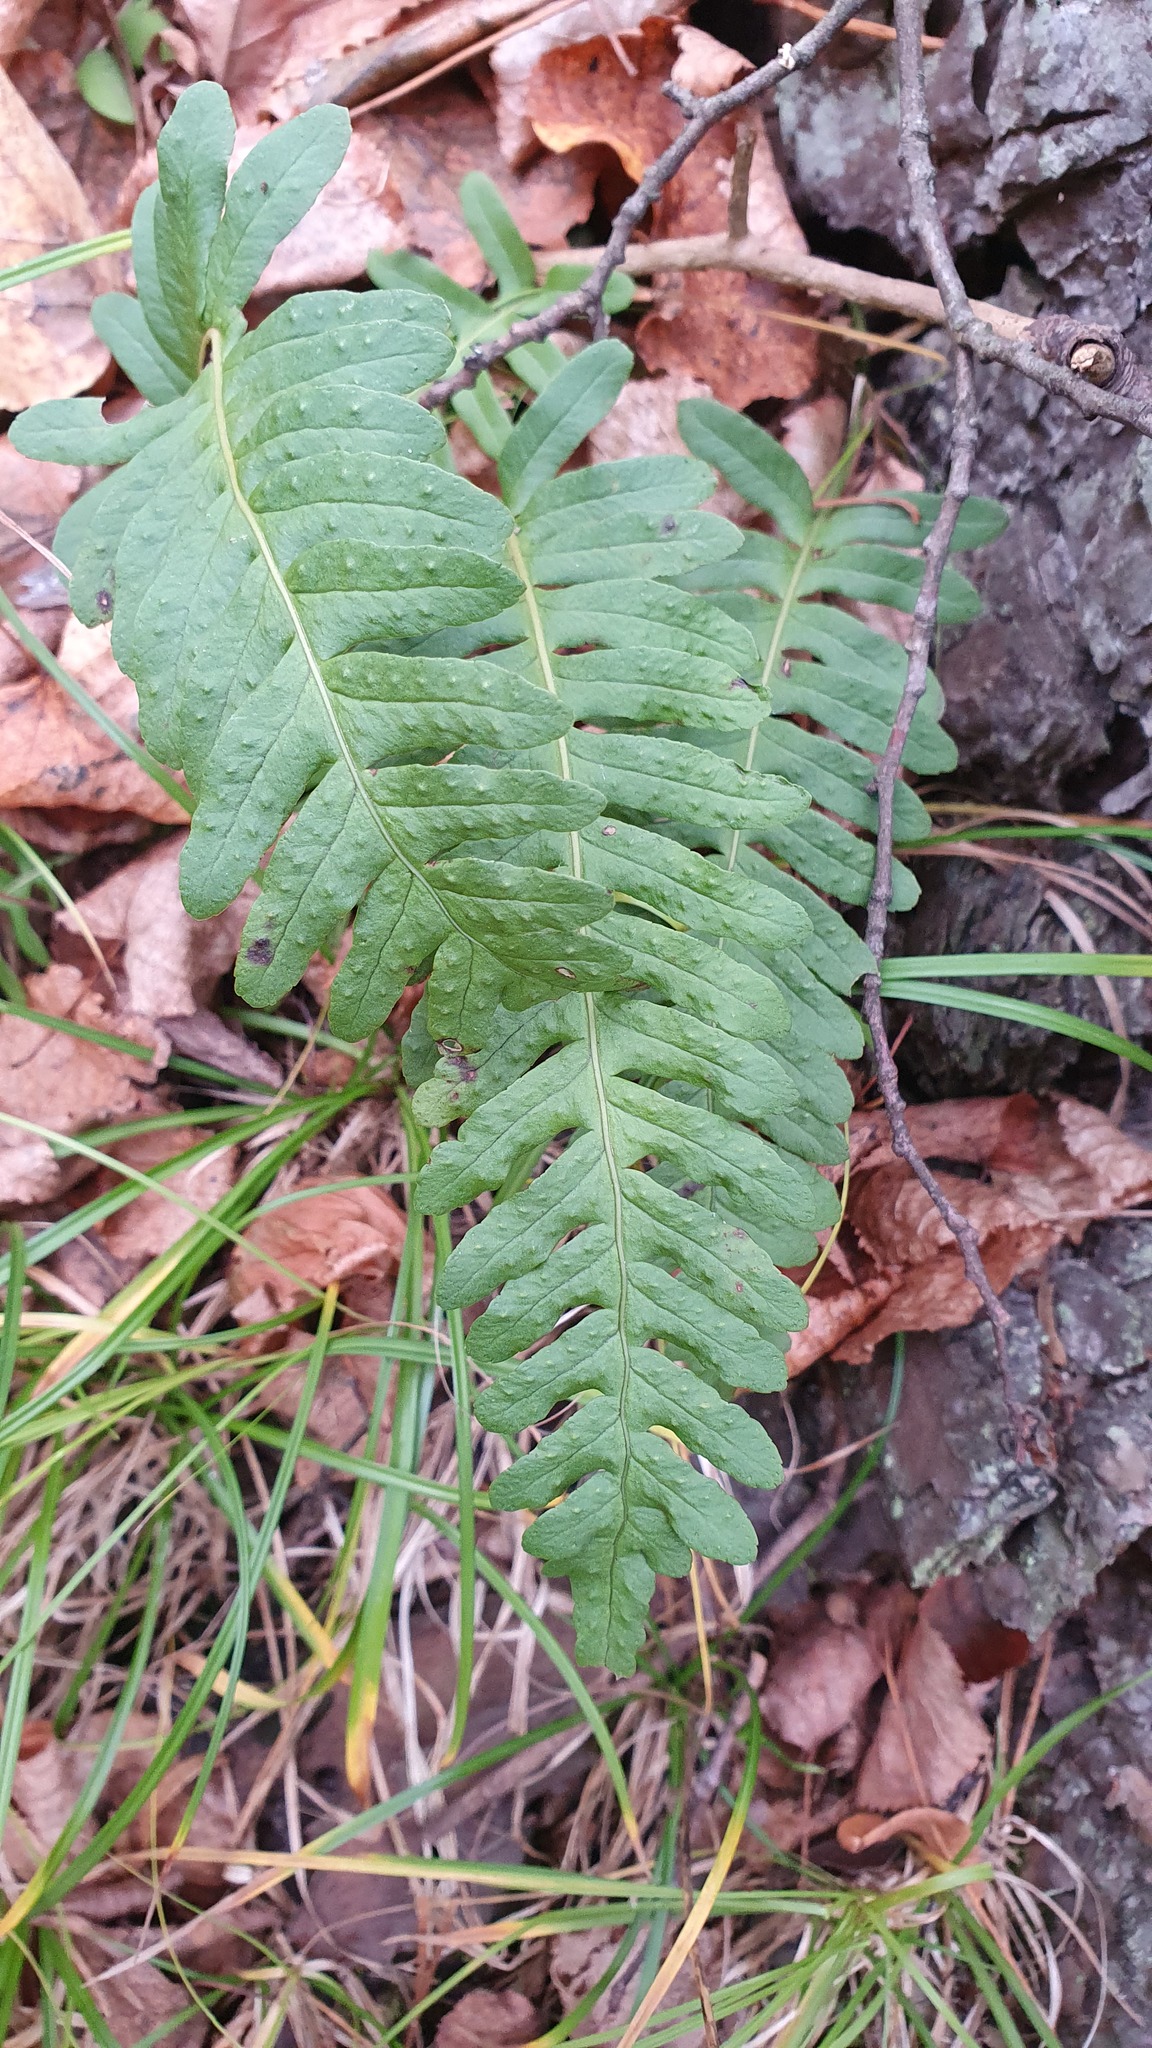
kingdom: Plantae
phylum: Tracheophyta
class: Polypodiopsida
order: Polypodiales
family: Polypodiaceae
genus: Polypodium
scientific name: Polypodium vulgare
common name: Common polypody
